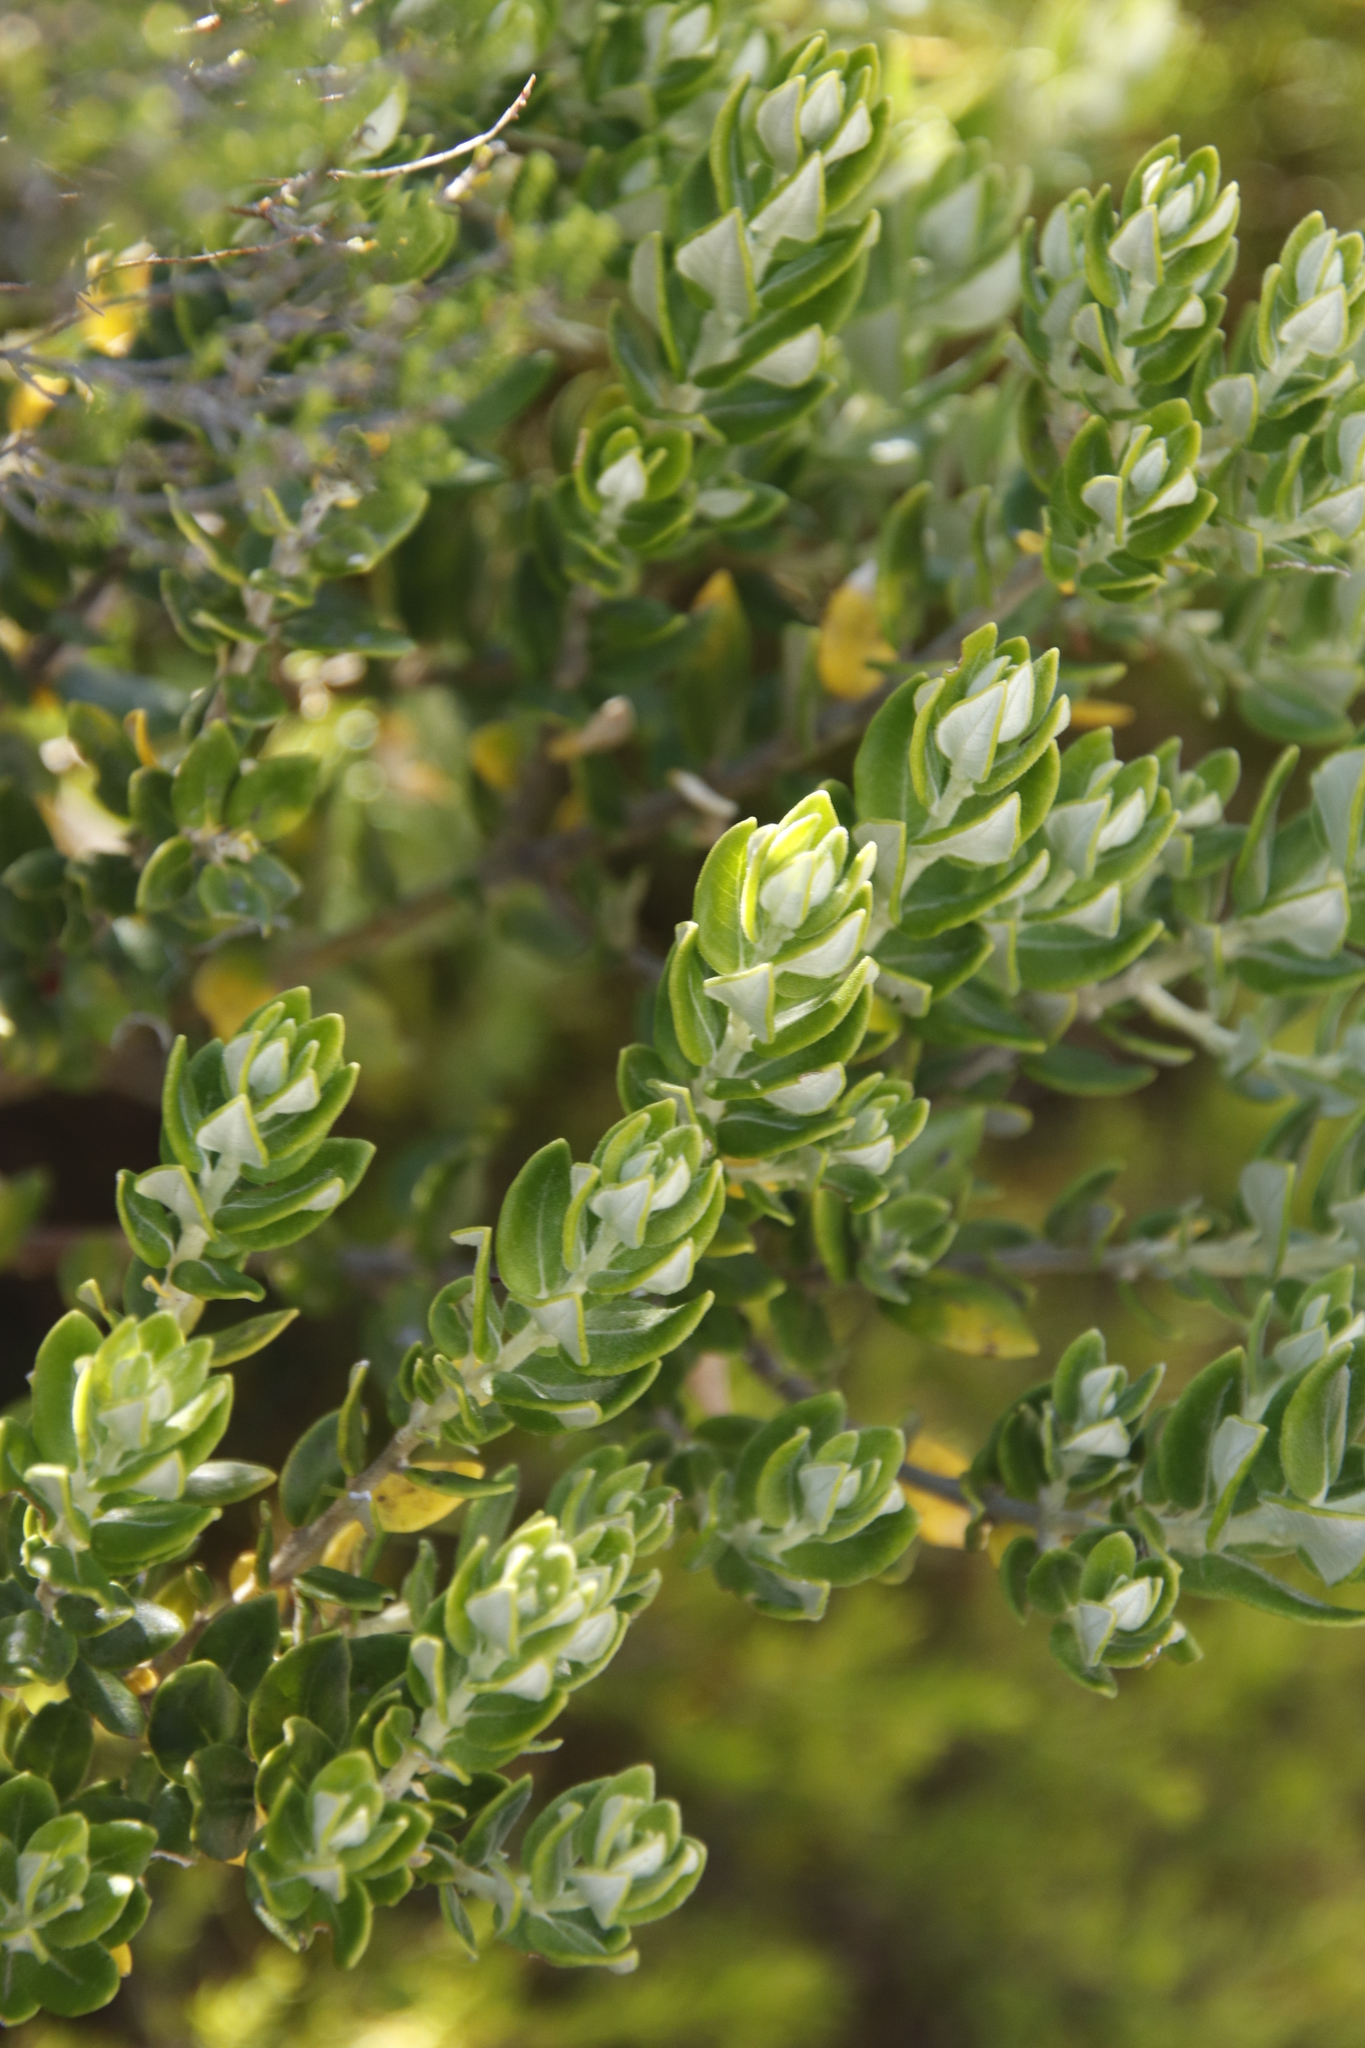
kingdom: Plantae
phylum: Tracheophyta
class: Magnoliopsida
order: Rosales
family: Rhamnaceae
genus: Phylica
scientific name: Phylica buxifolia
